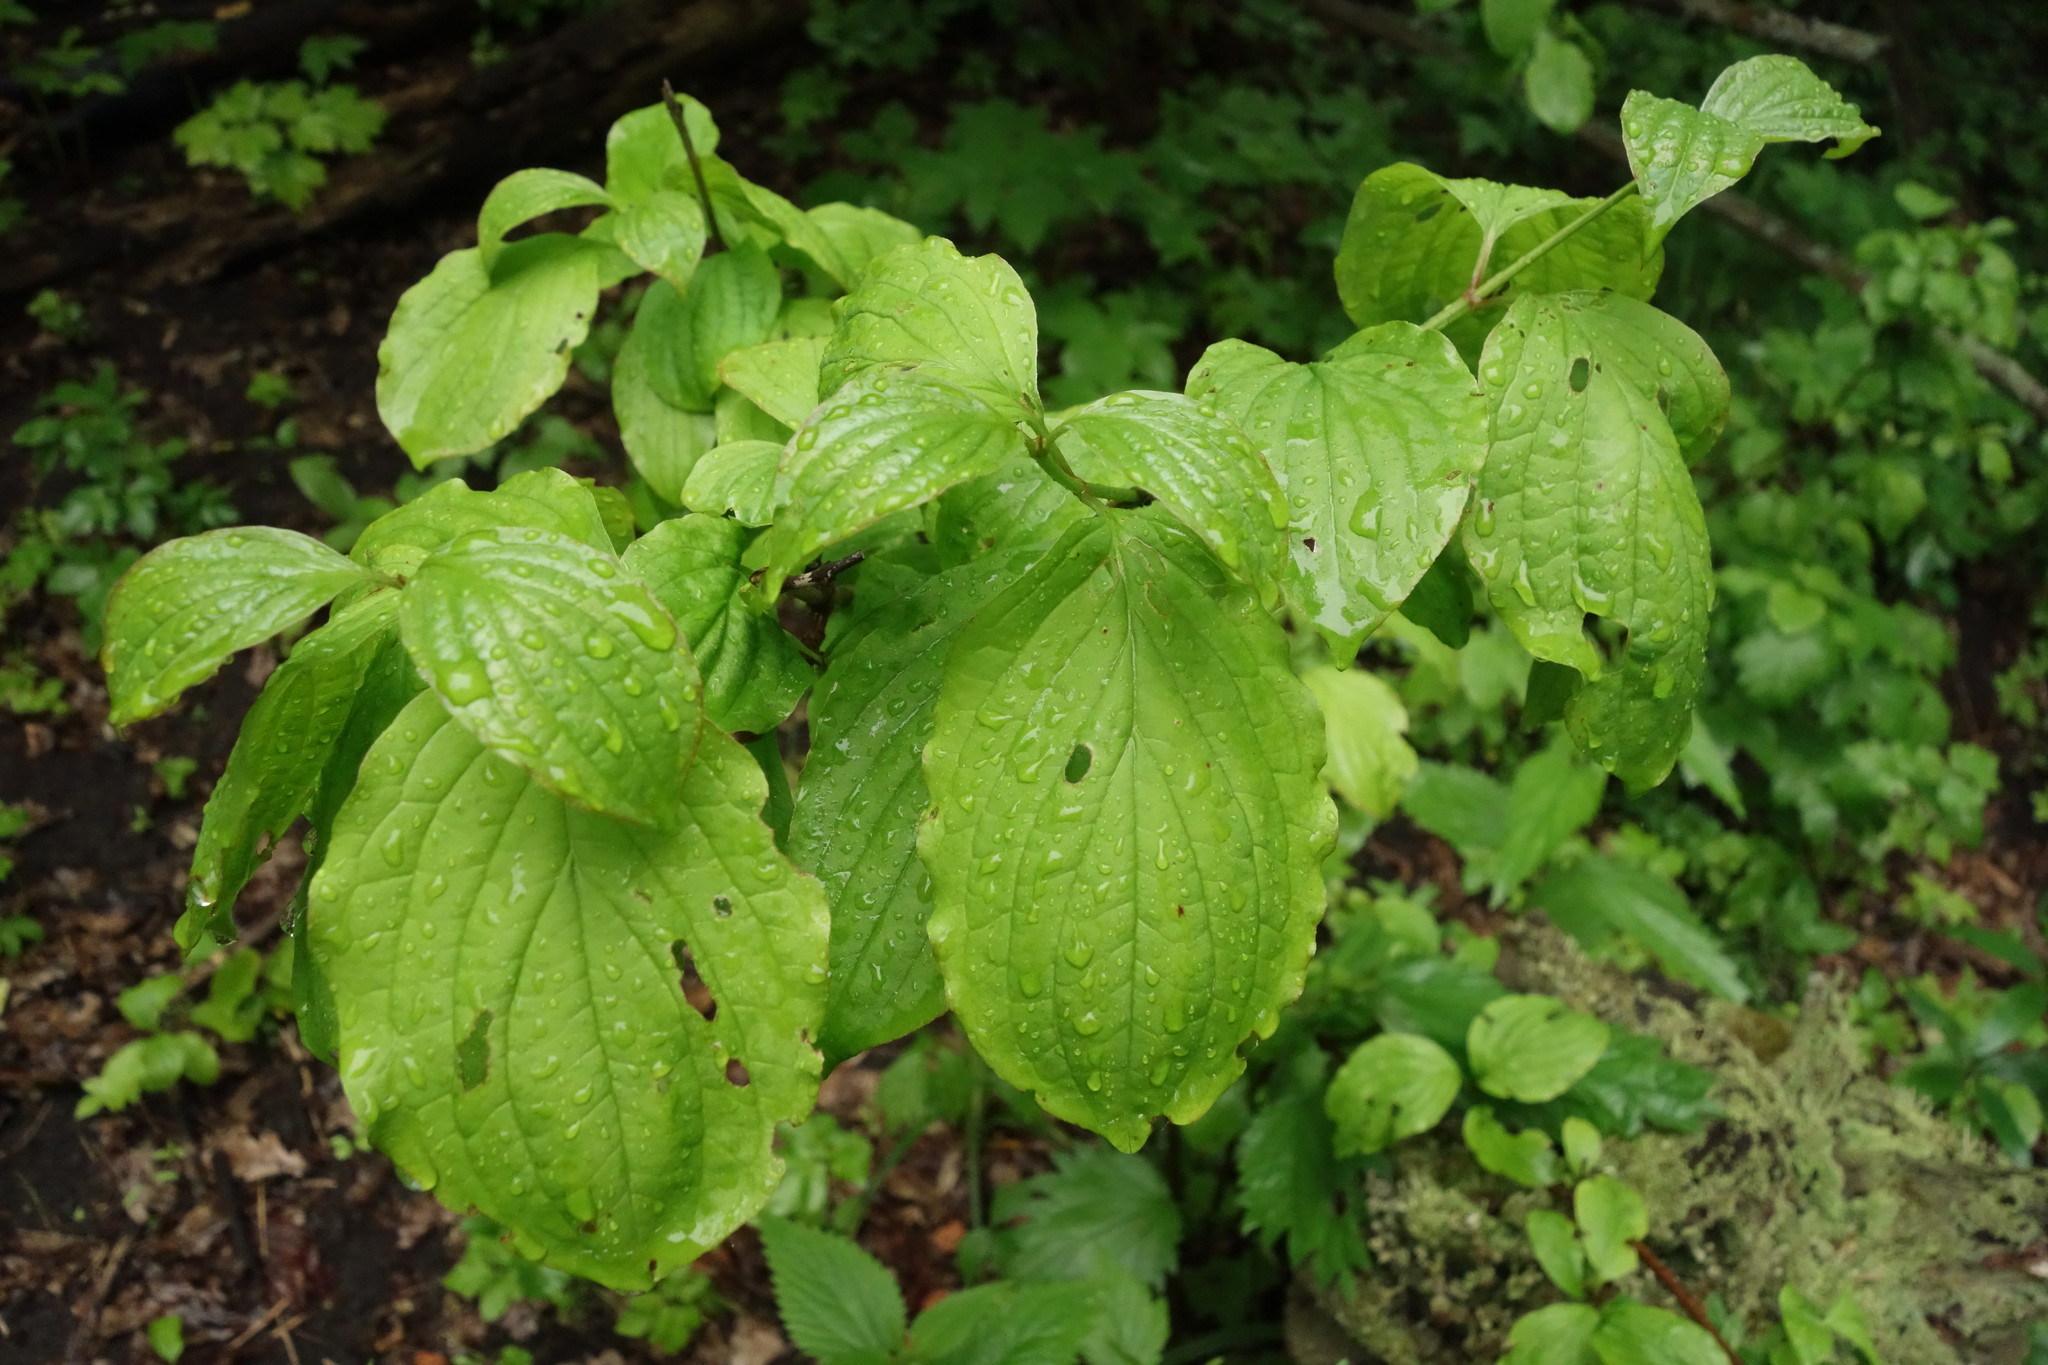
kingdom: Plantae
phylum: Tracheophyta
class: Magnoliopsida
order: Cornales
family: Cornaceae
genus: Cornus
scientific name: Cornus sanguinea
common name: Dogwood
